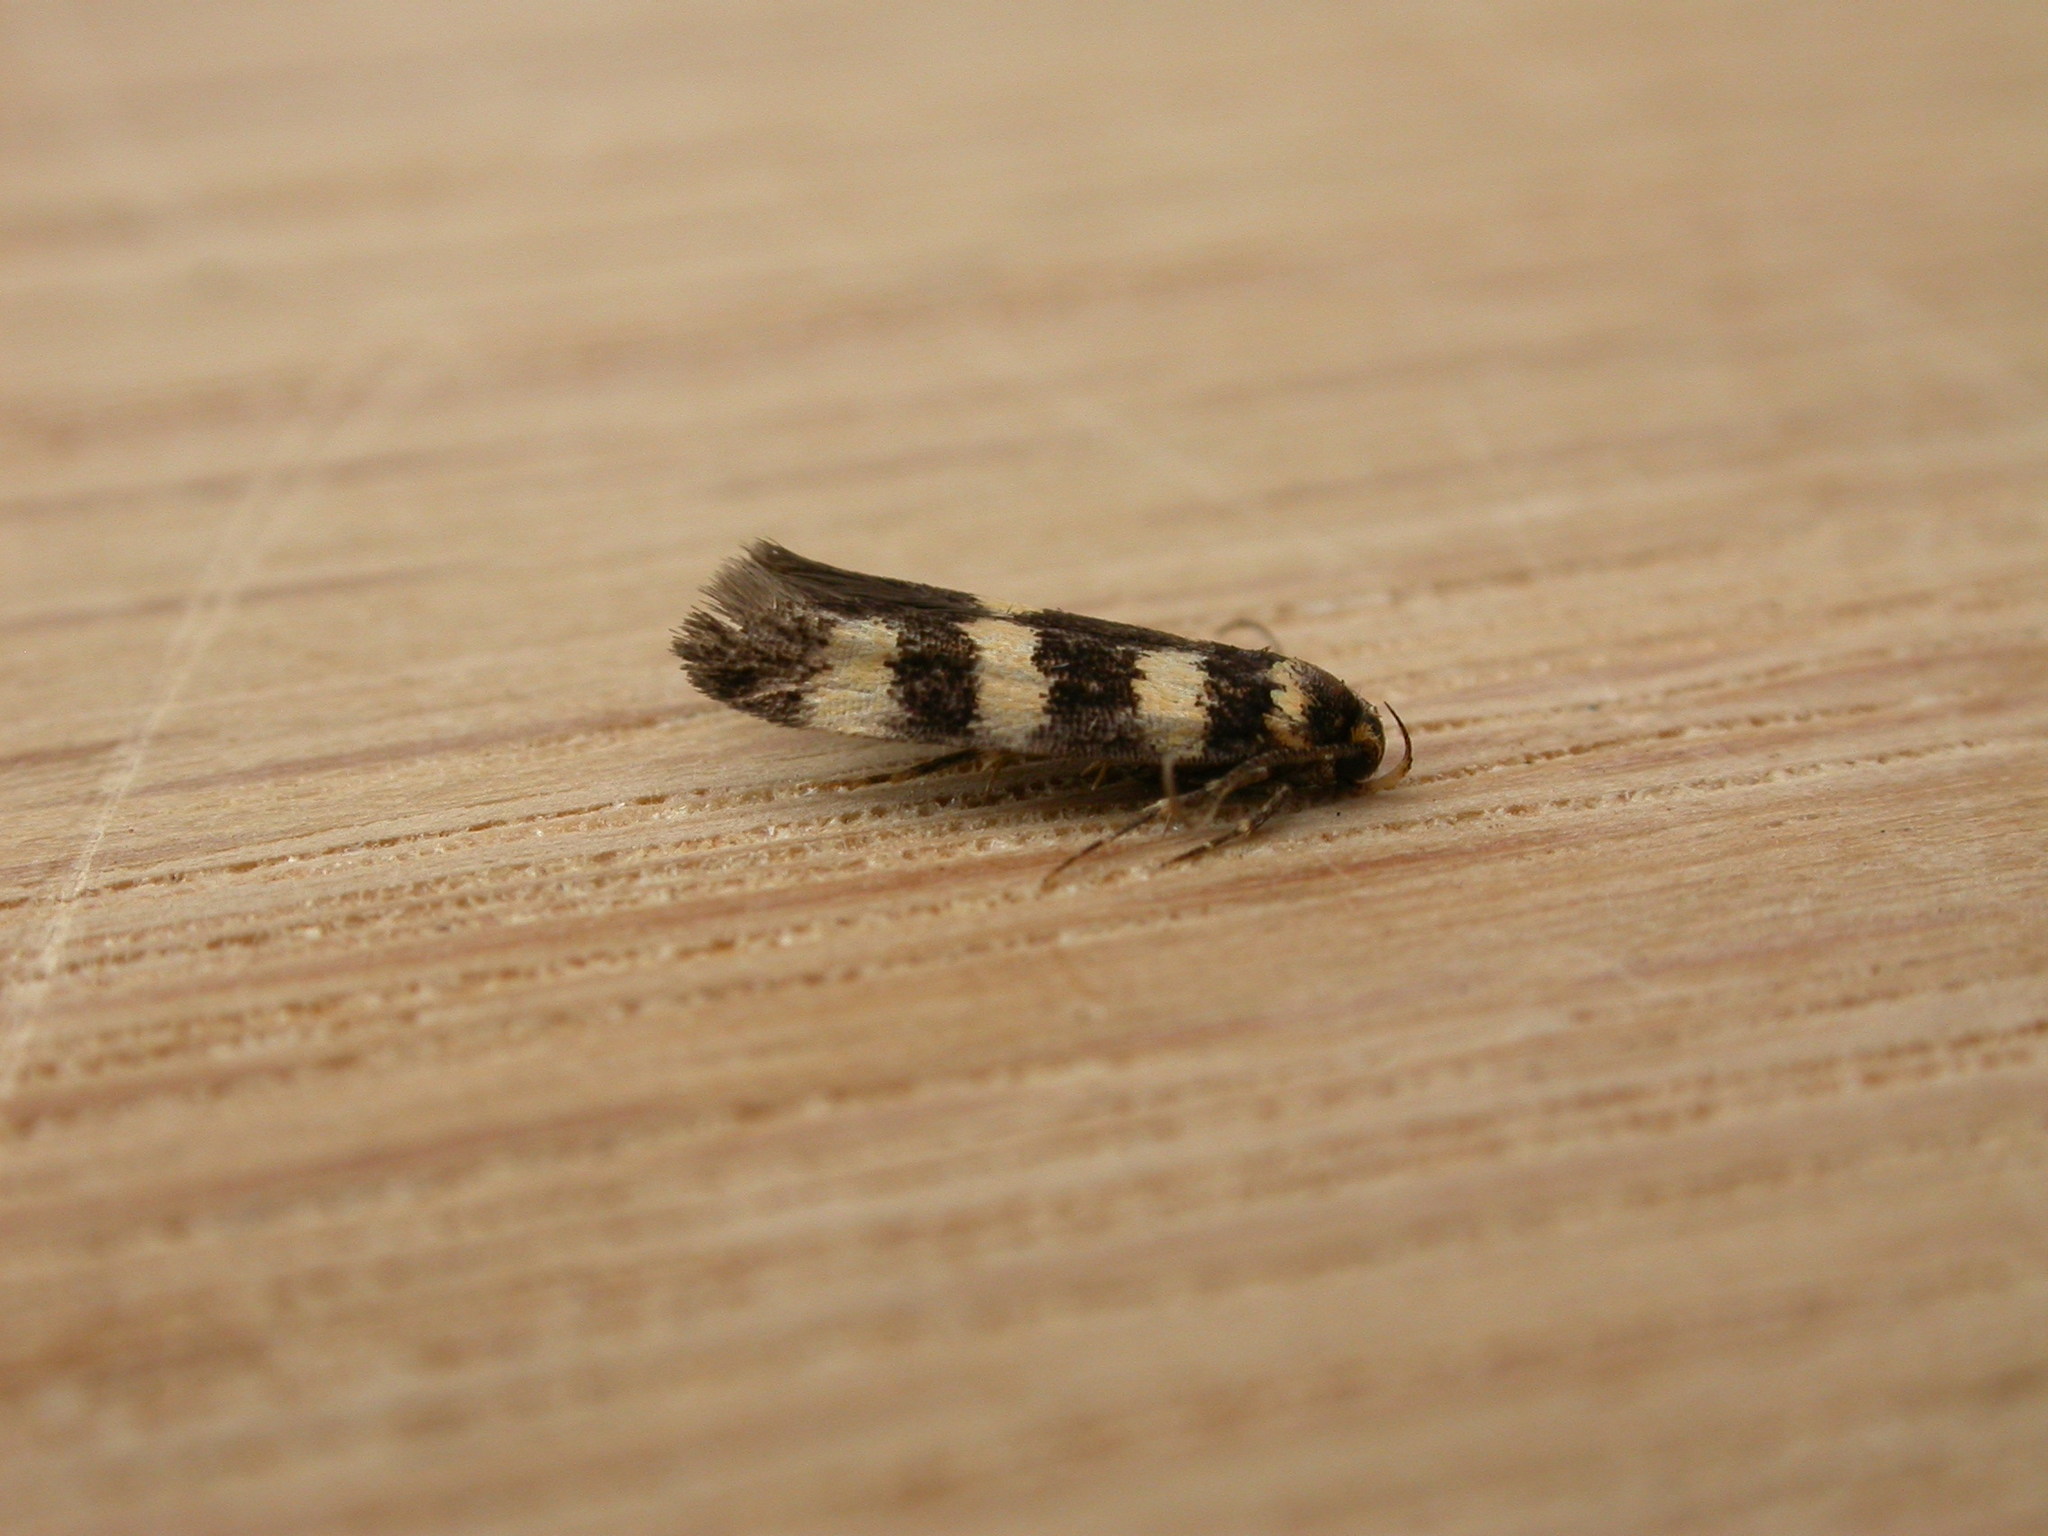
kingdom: Animalia
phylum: Arthropoda
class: Insecta
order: Lepidoptera
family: Oecophoridae
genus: Cirromitra
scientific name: Cirromitra tetratherma
